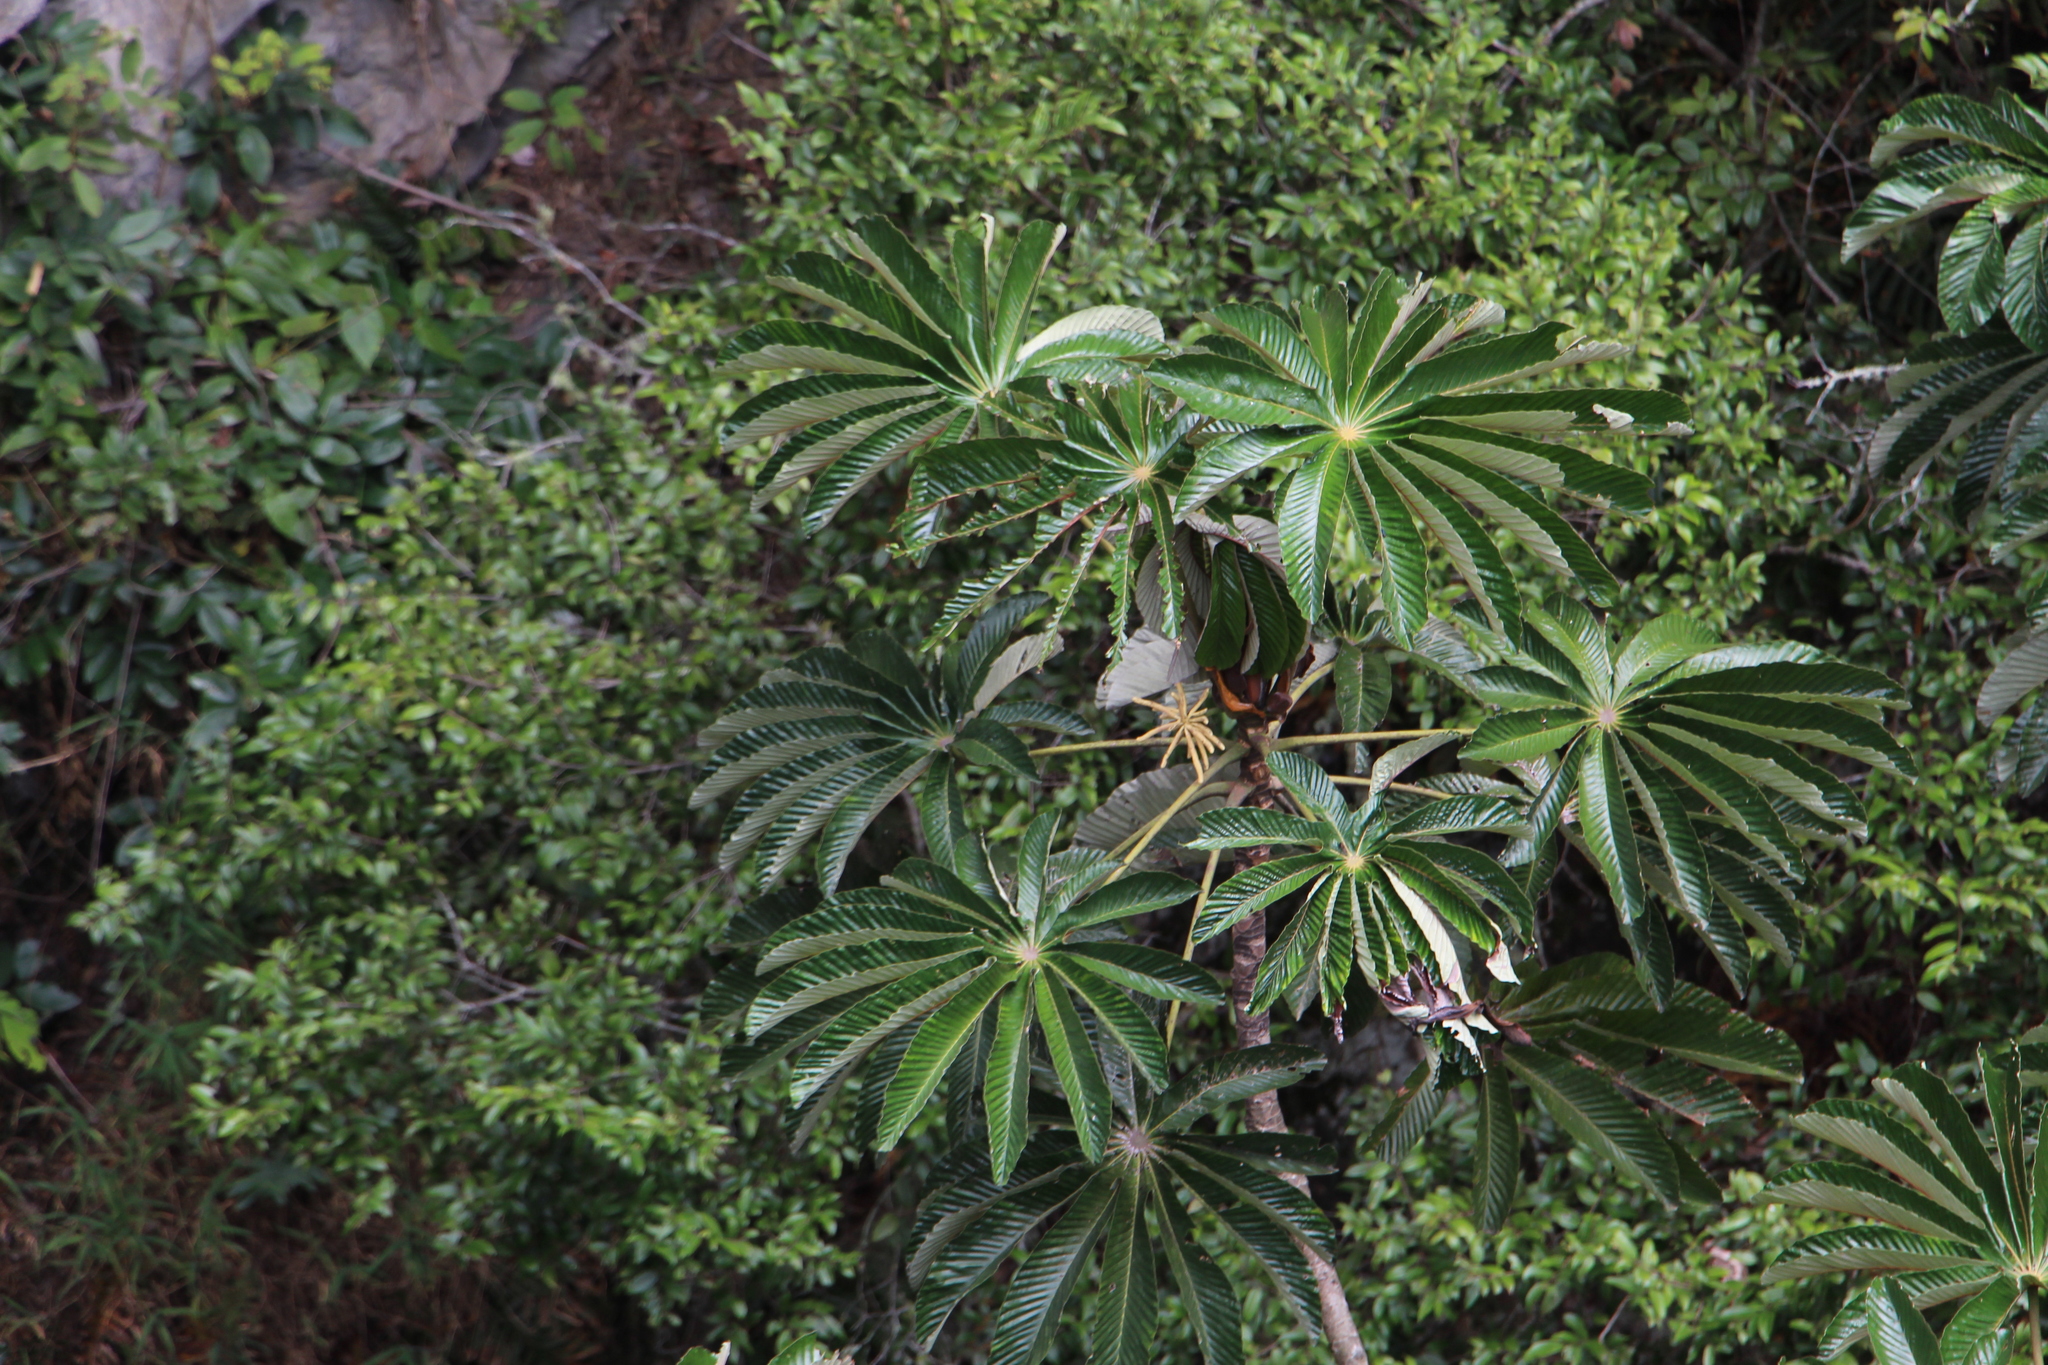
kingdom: Plantae
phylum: Tracheophyta
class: Magnoliopsida
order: Rosales
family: Urticaceae
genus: Cecropia
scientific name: Cecropia angustifolia
